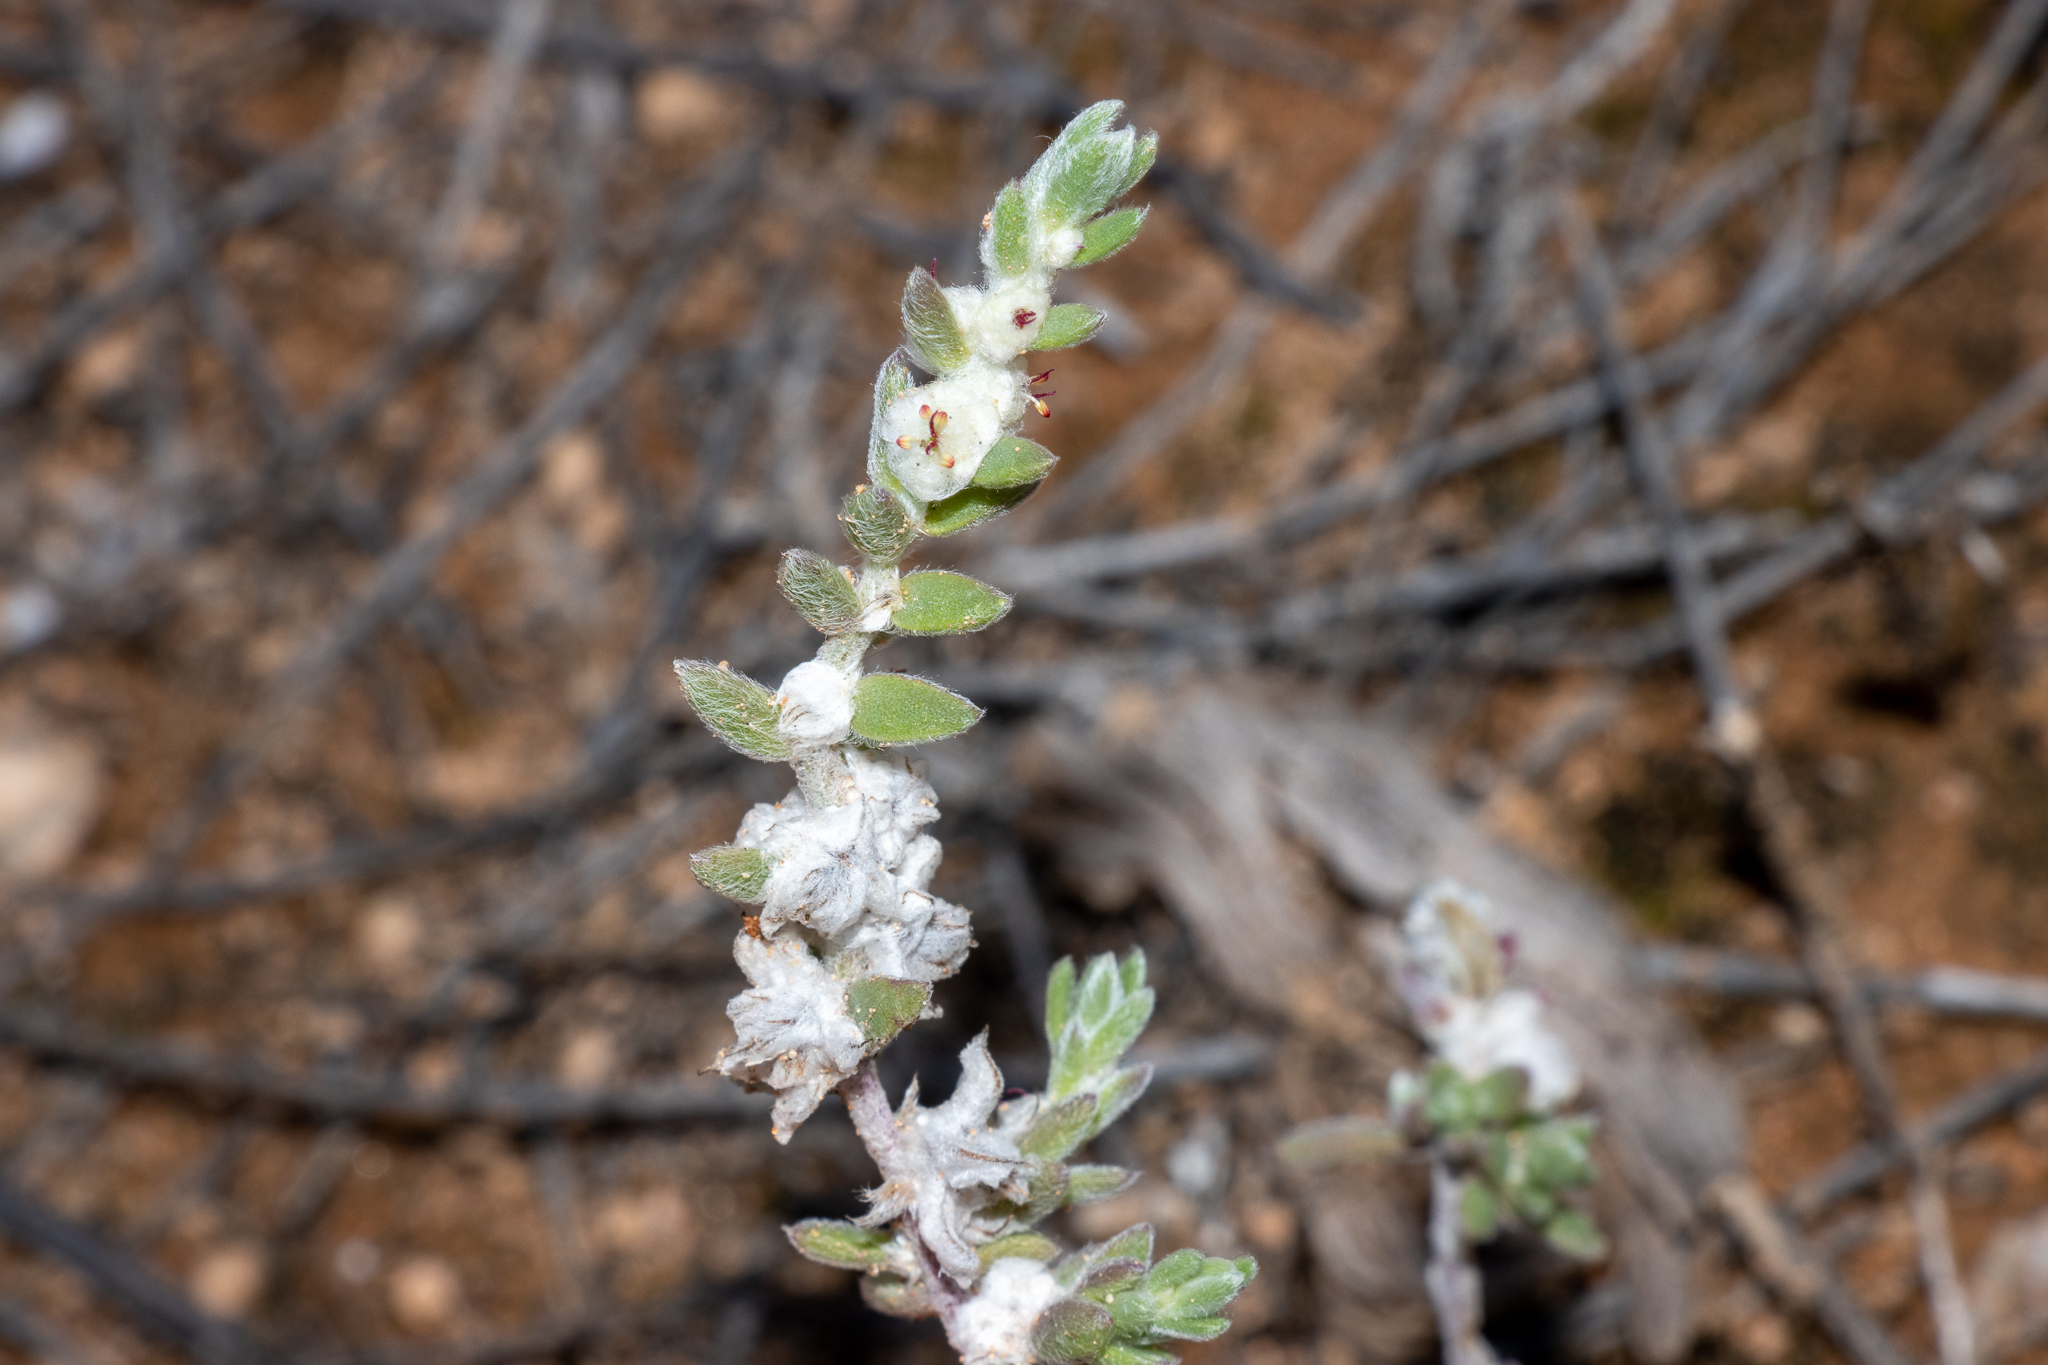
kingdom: Plantae
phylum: Tracheophyta
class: Magnoliopsida
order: Caryophyllales
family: Amaranthaceae
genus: Maireana
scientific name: Maireana sclerolaenoides
